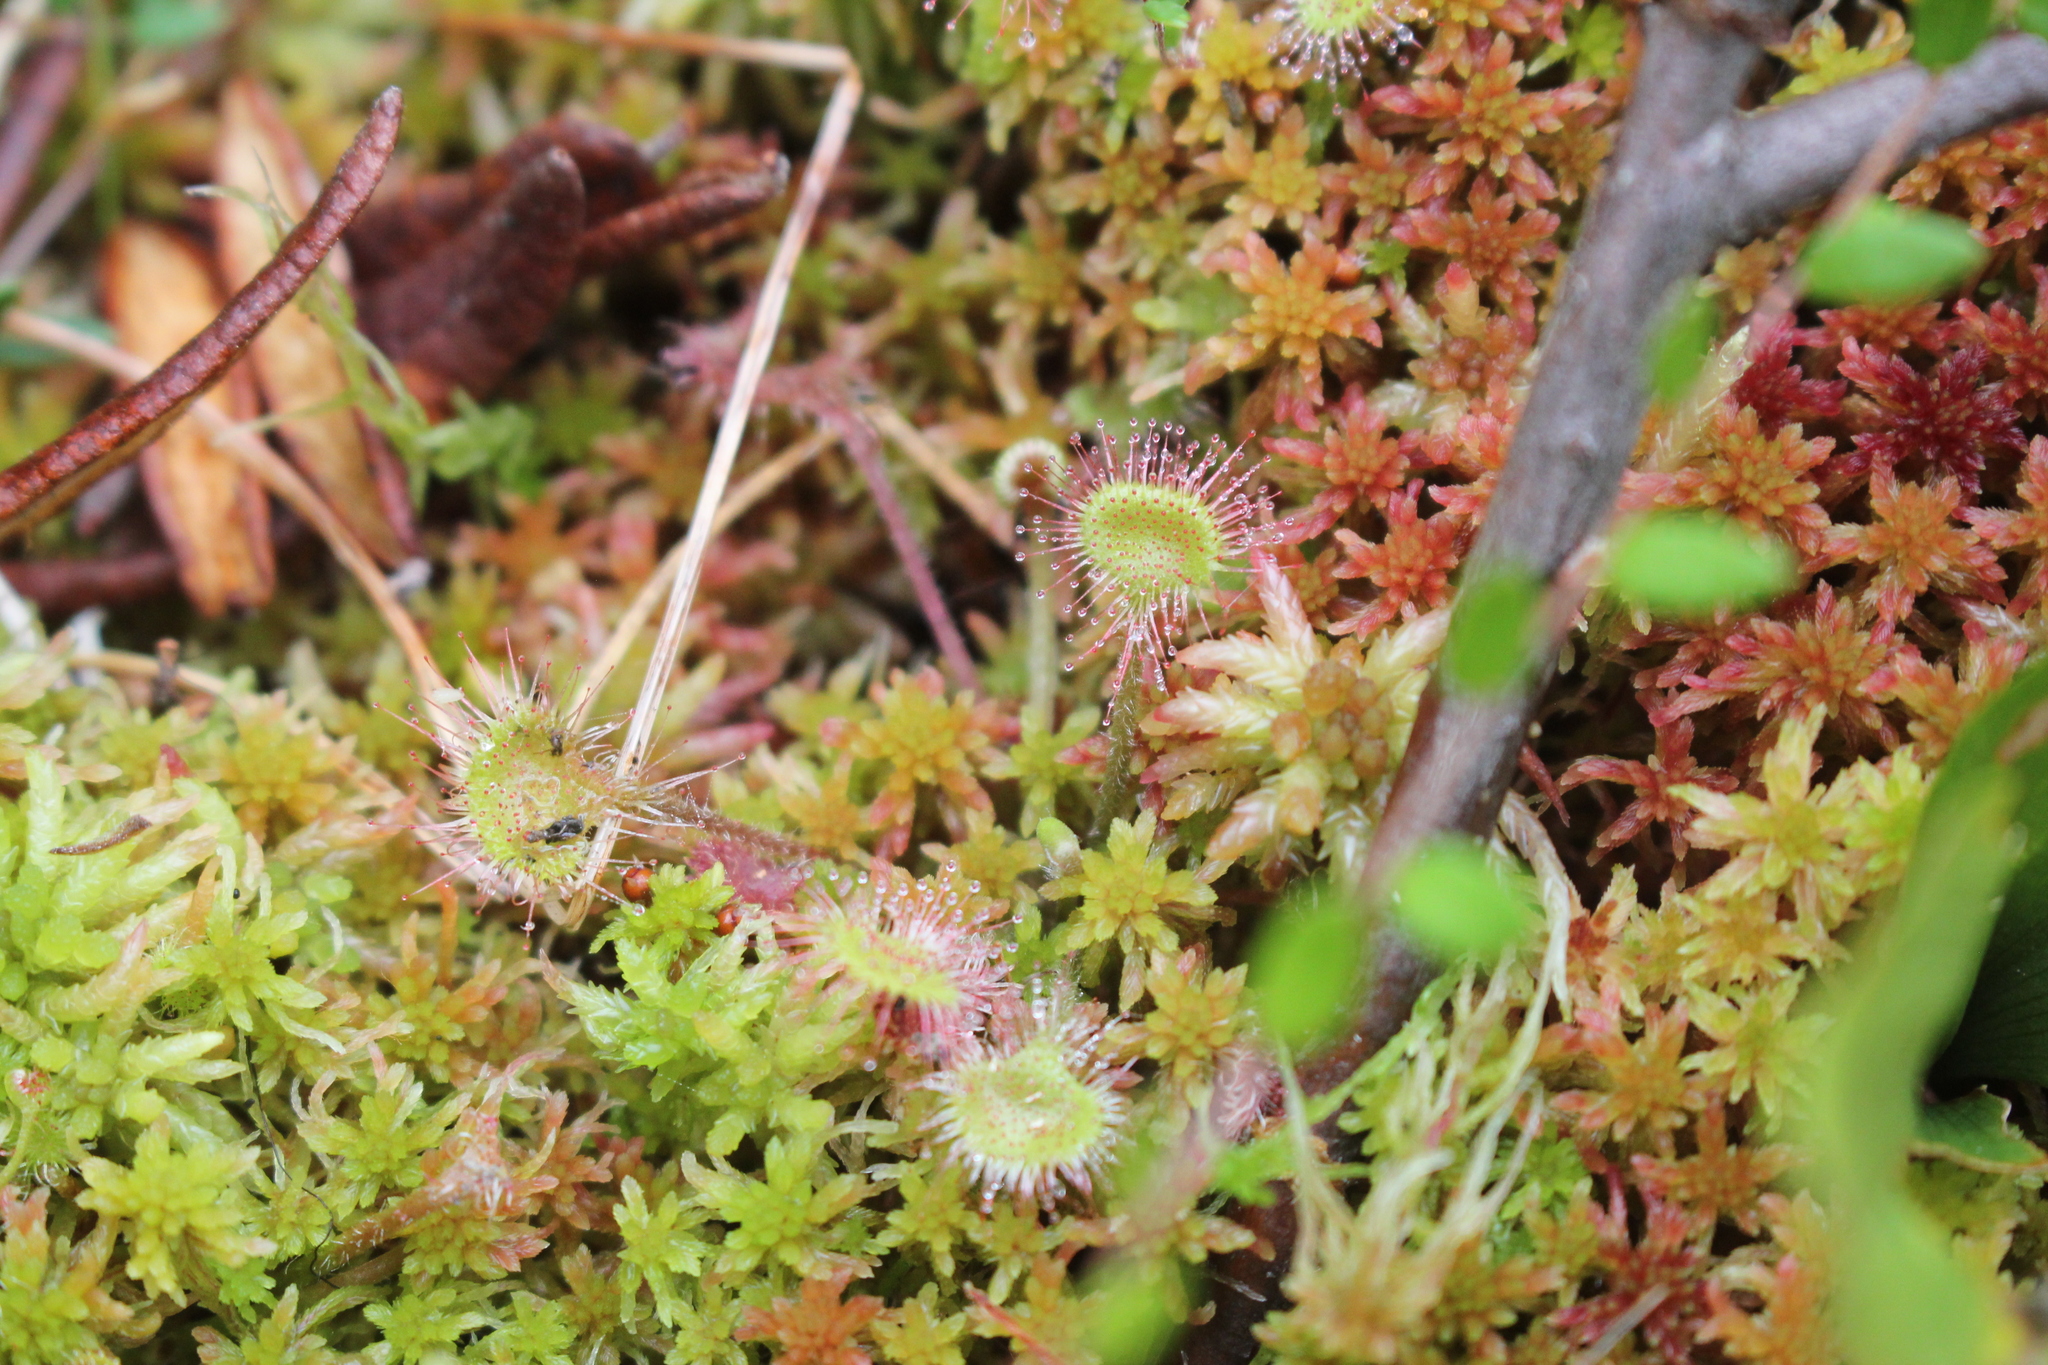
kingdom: Plantae
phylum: Tracheophyta
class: Magnoliopsida
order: Caryophyllales
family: Droseraceae
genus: Drosera
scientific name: Drosera rotundifolia
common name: Round-leaved sundew
